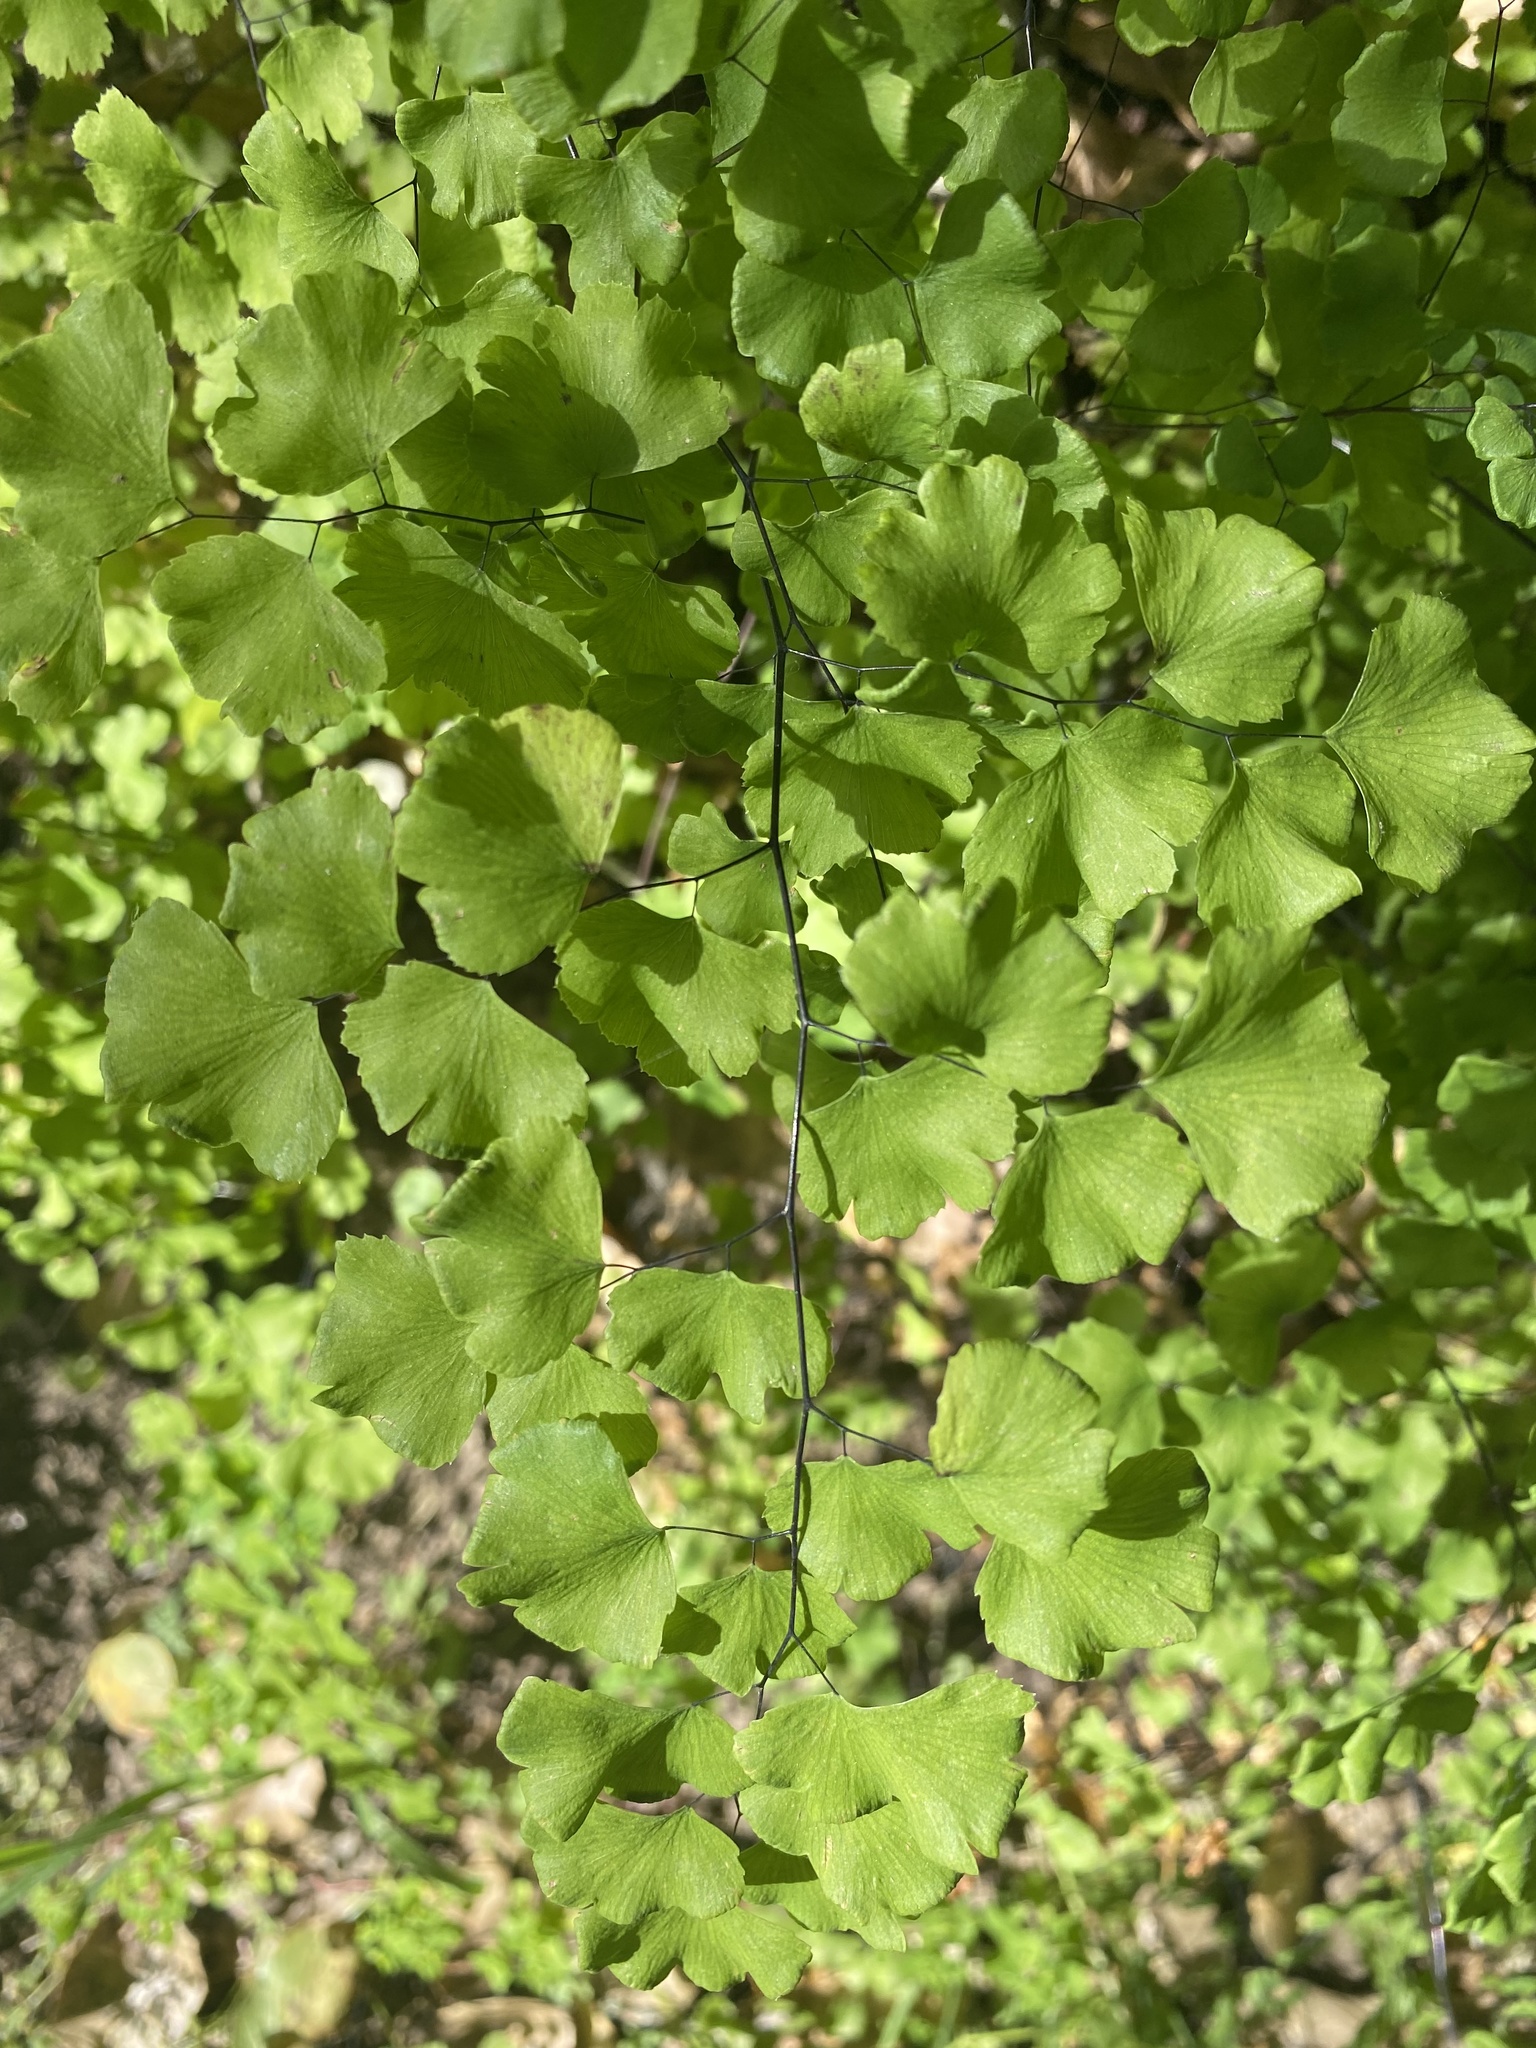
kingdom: Plantae
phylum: Tracheophyta
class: Polypodiopsida
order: Polypodiales
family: Pteridaceae
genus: Adiantum
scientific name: Adiantum jordanii
